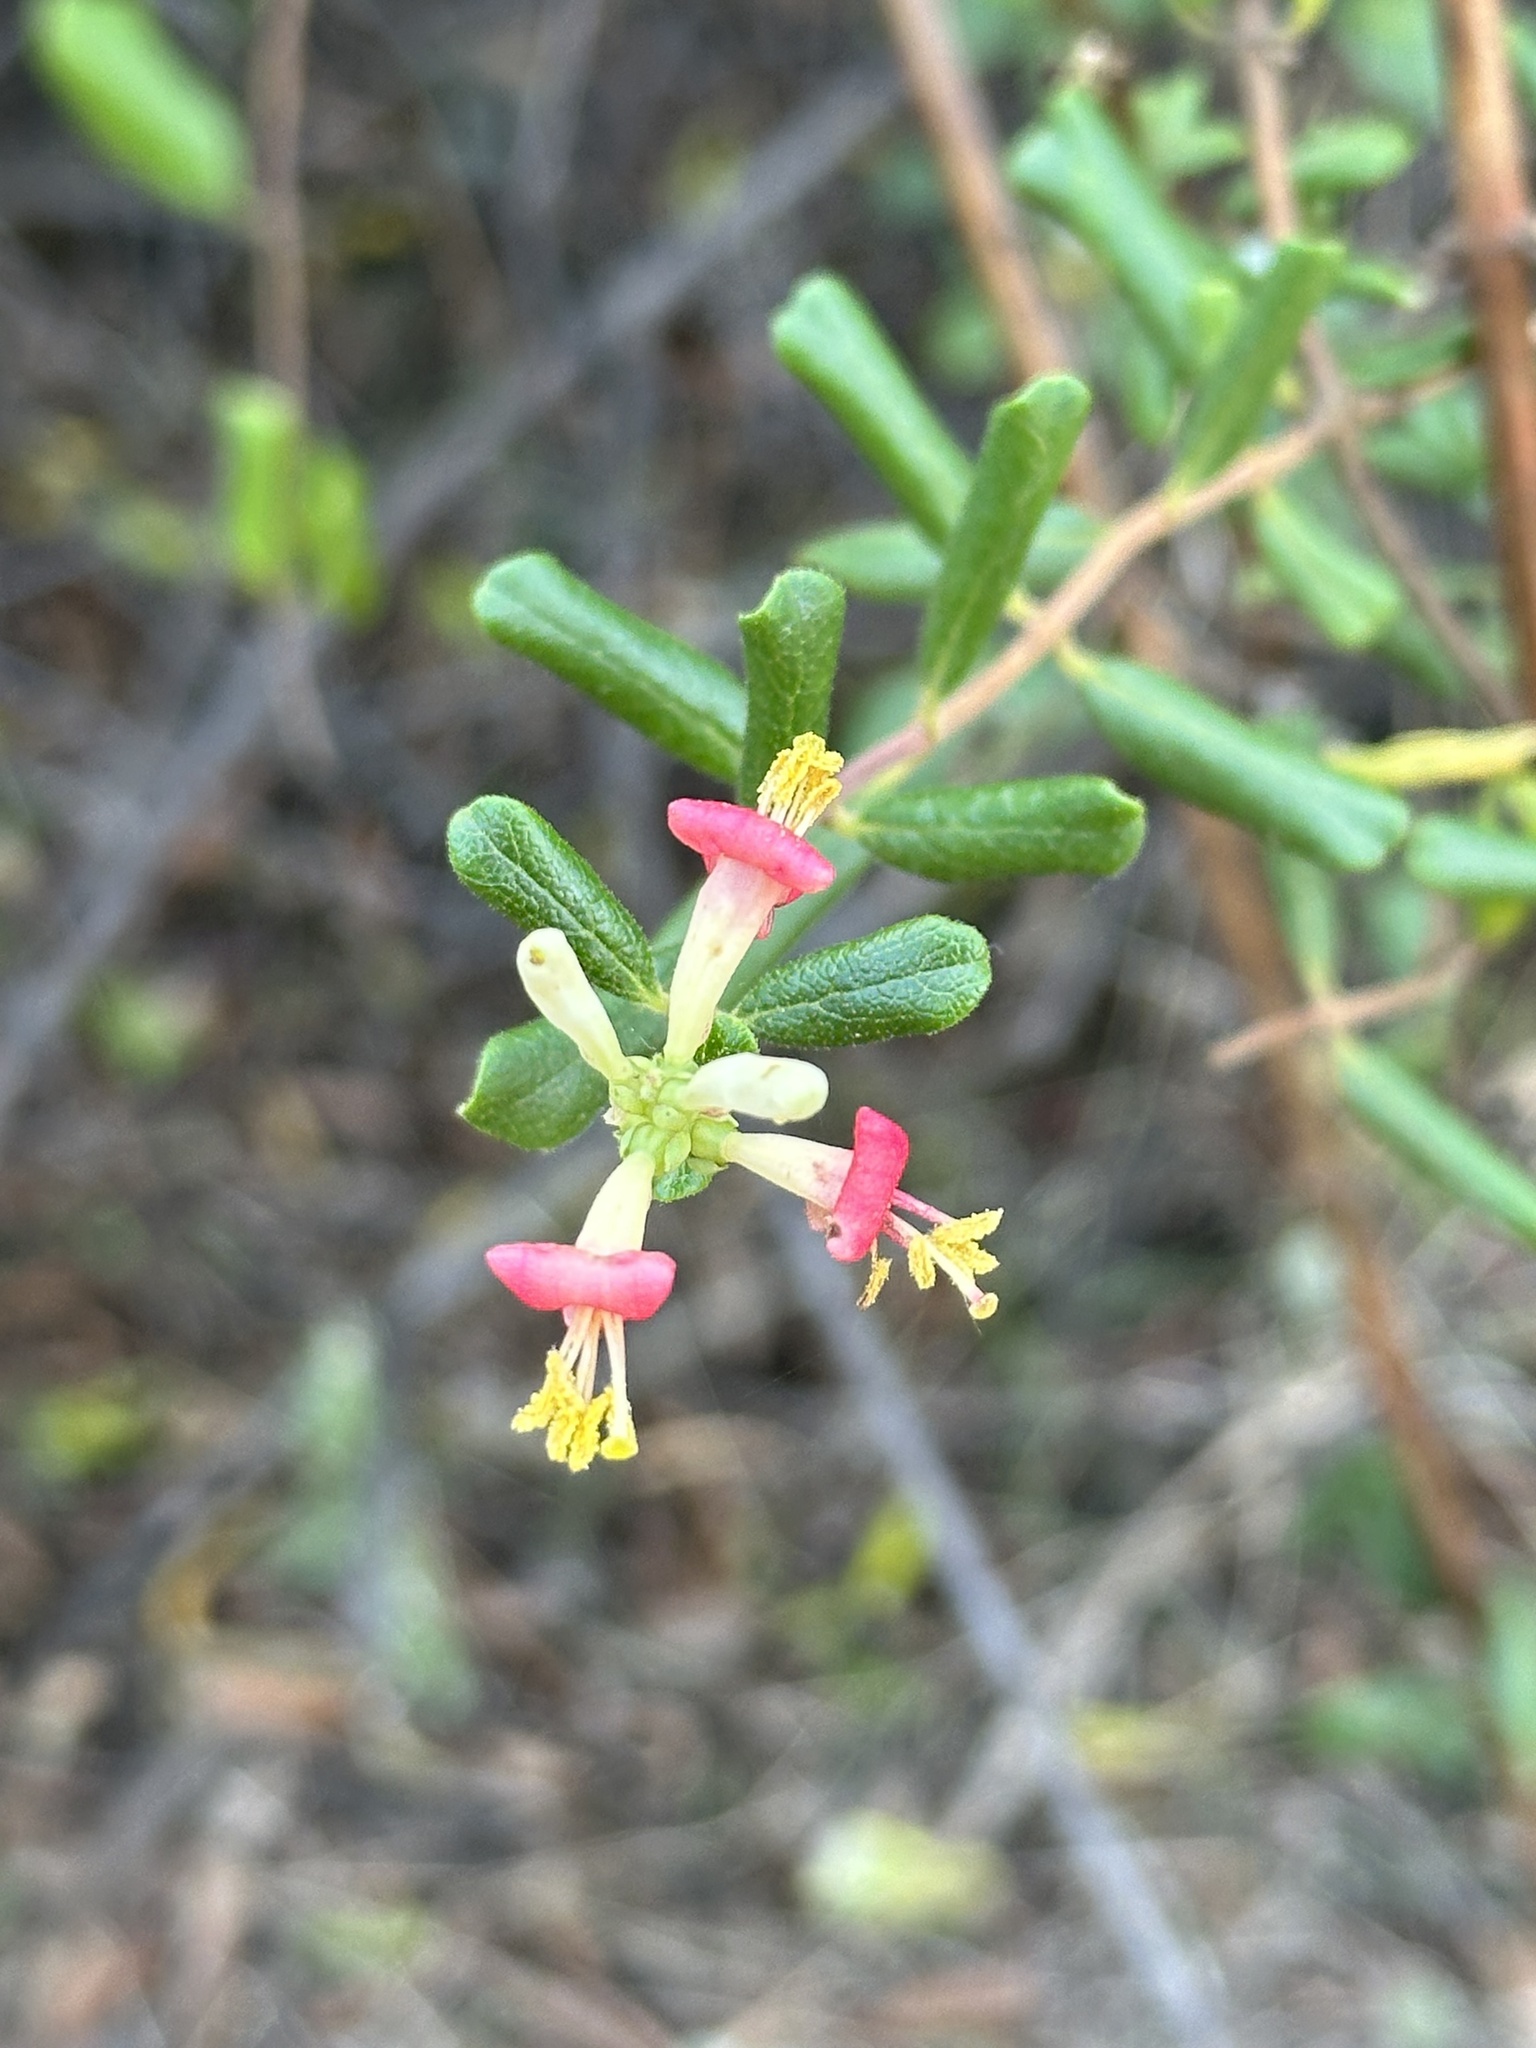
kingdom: Plantae
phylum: Tracheophyta
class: Magnoliopsida
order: Dipsacales
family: Caprifoliaceae
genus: Lonicera
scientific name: Lonicera subspicata
